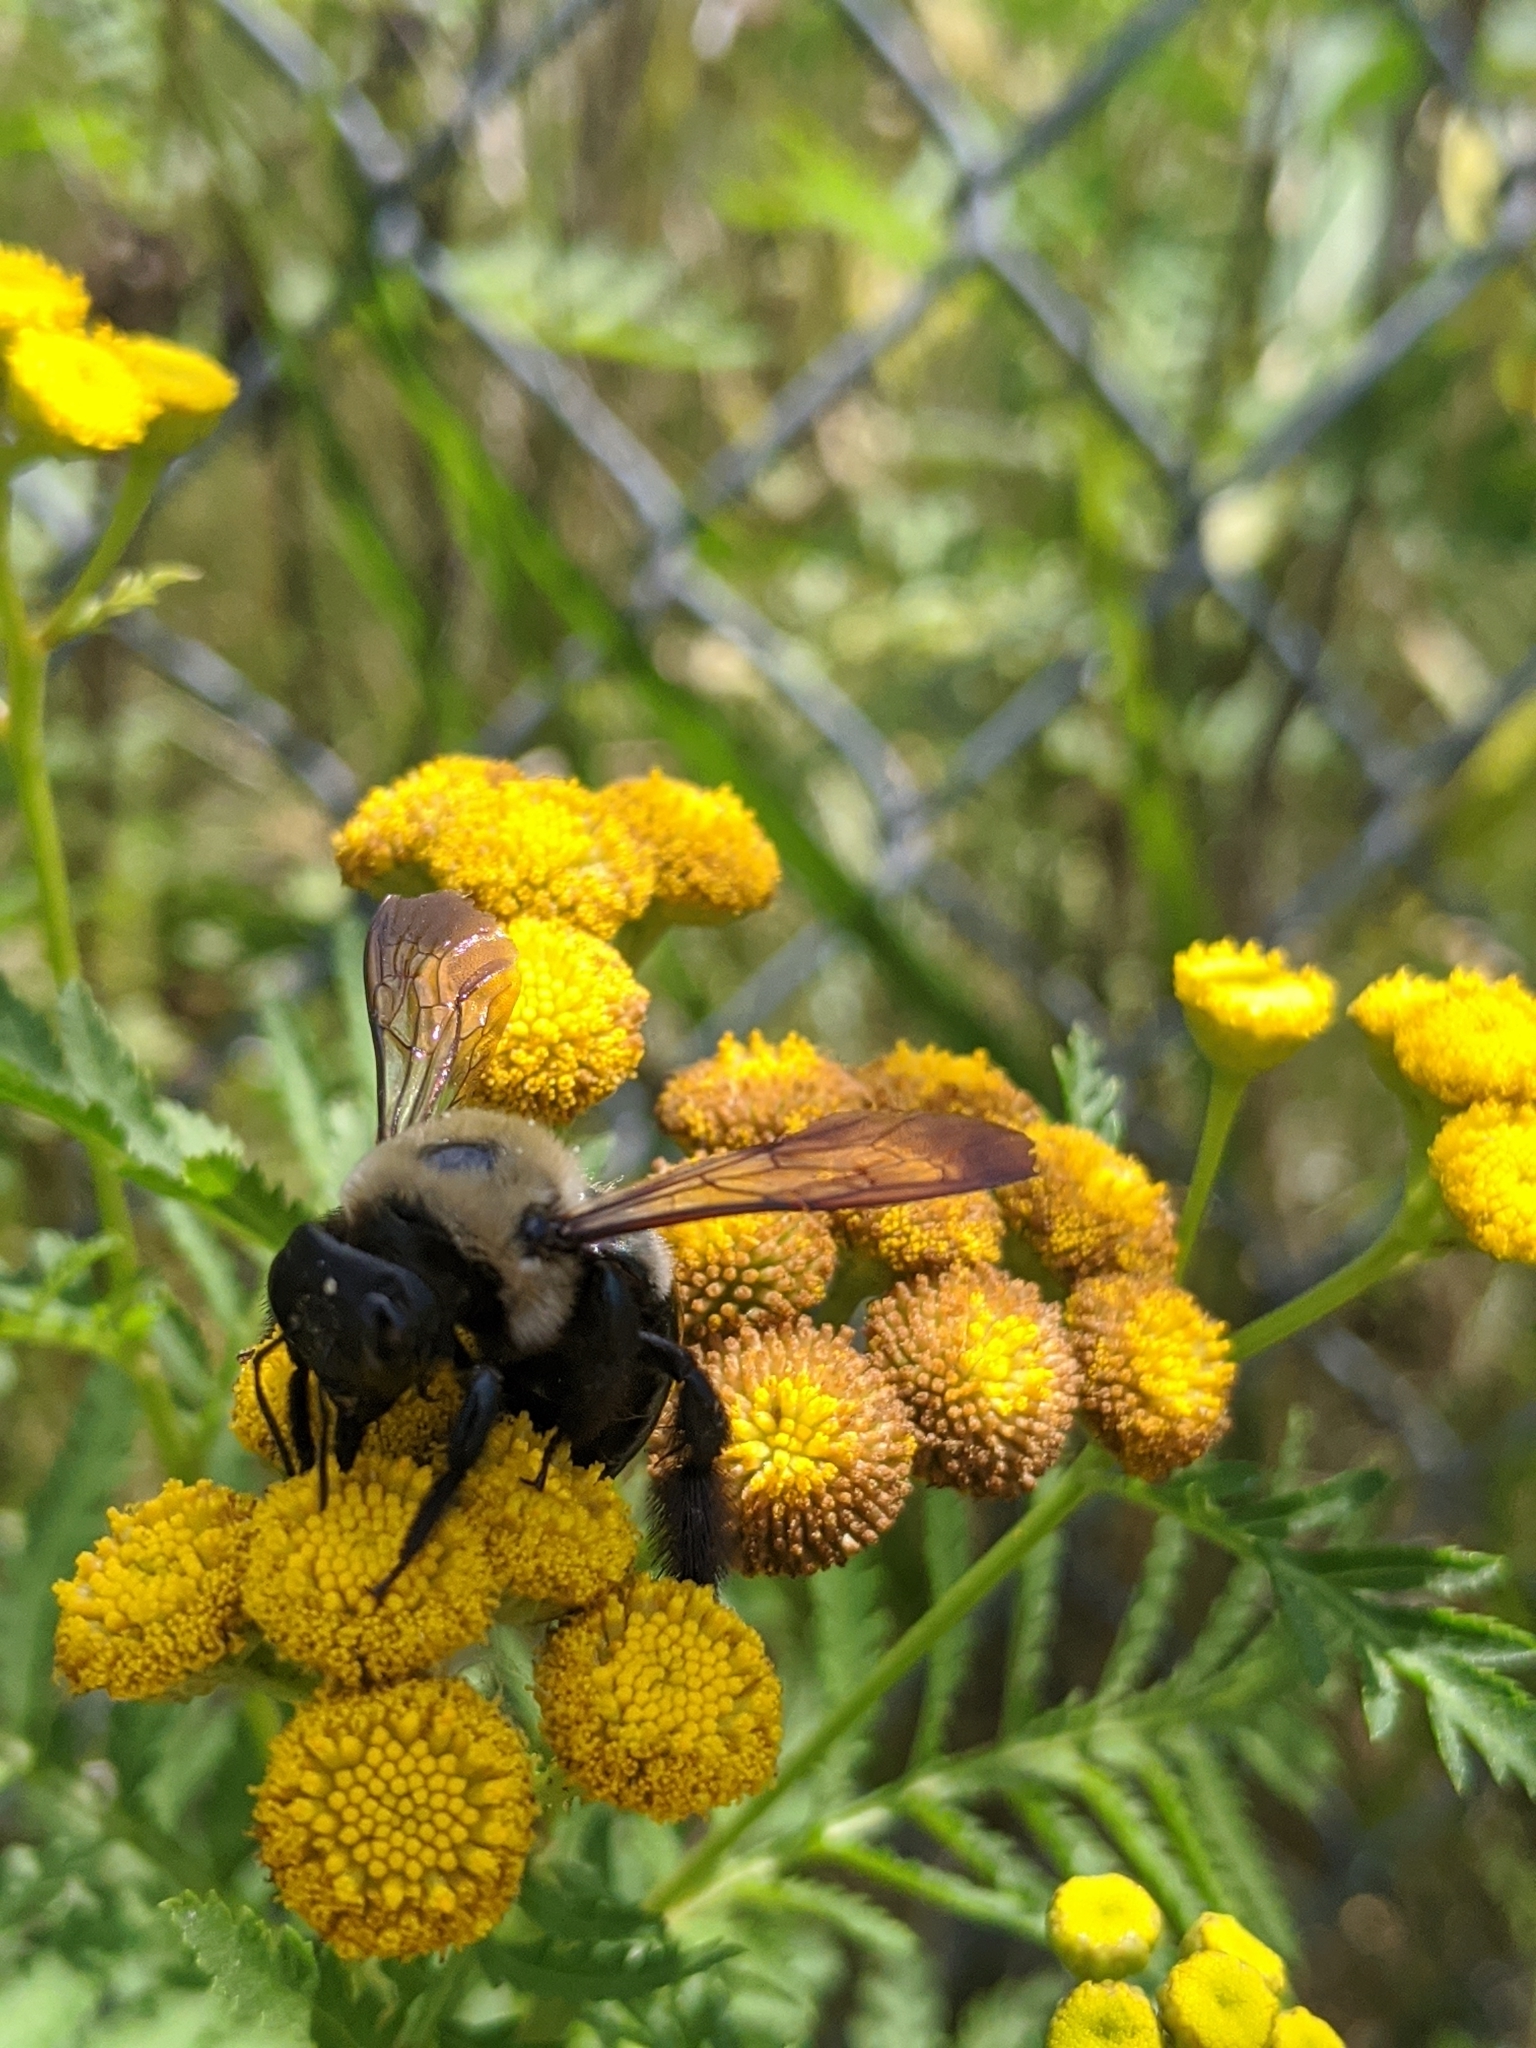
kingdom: Animalia
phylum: Arthropoda
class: Insecta
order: Hymenoptera
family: Apidae
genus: Xylocopa
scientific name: Xylocopa virginica
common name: Carpenter bee
